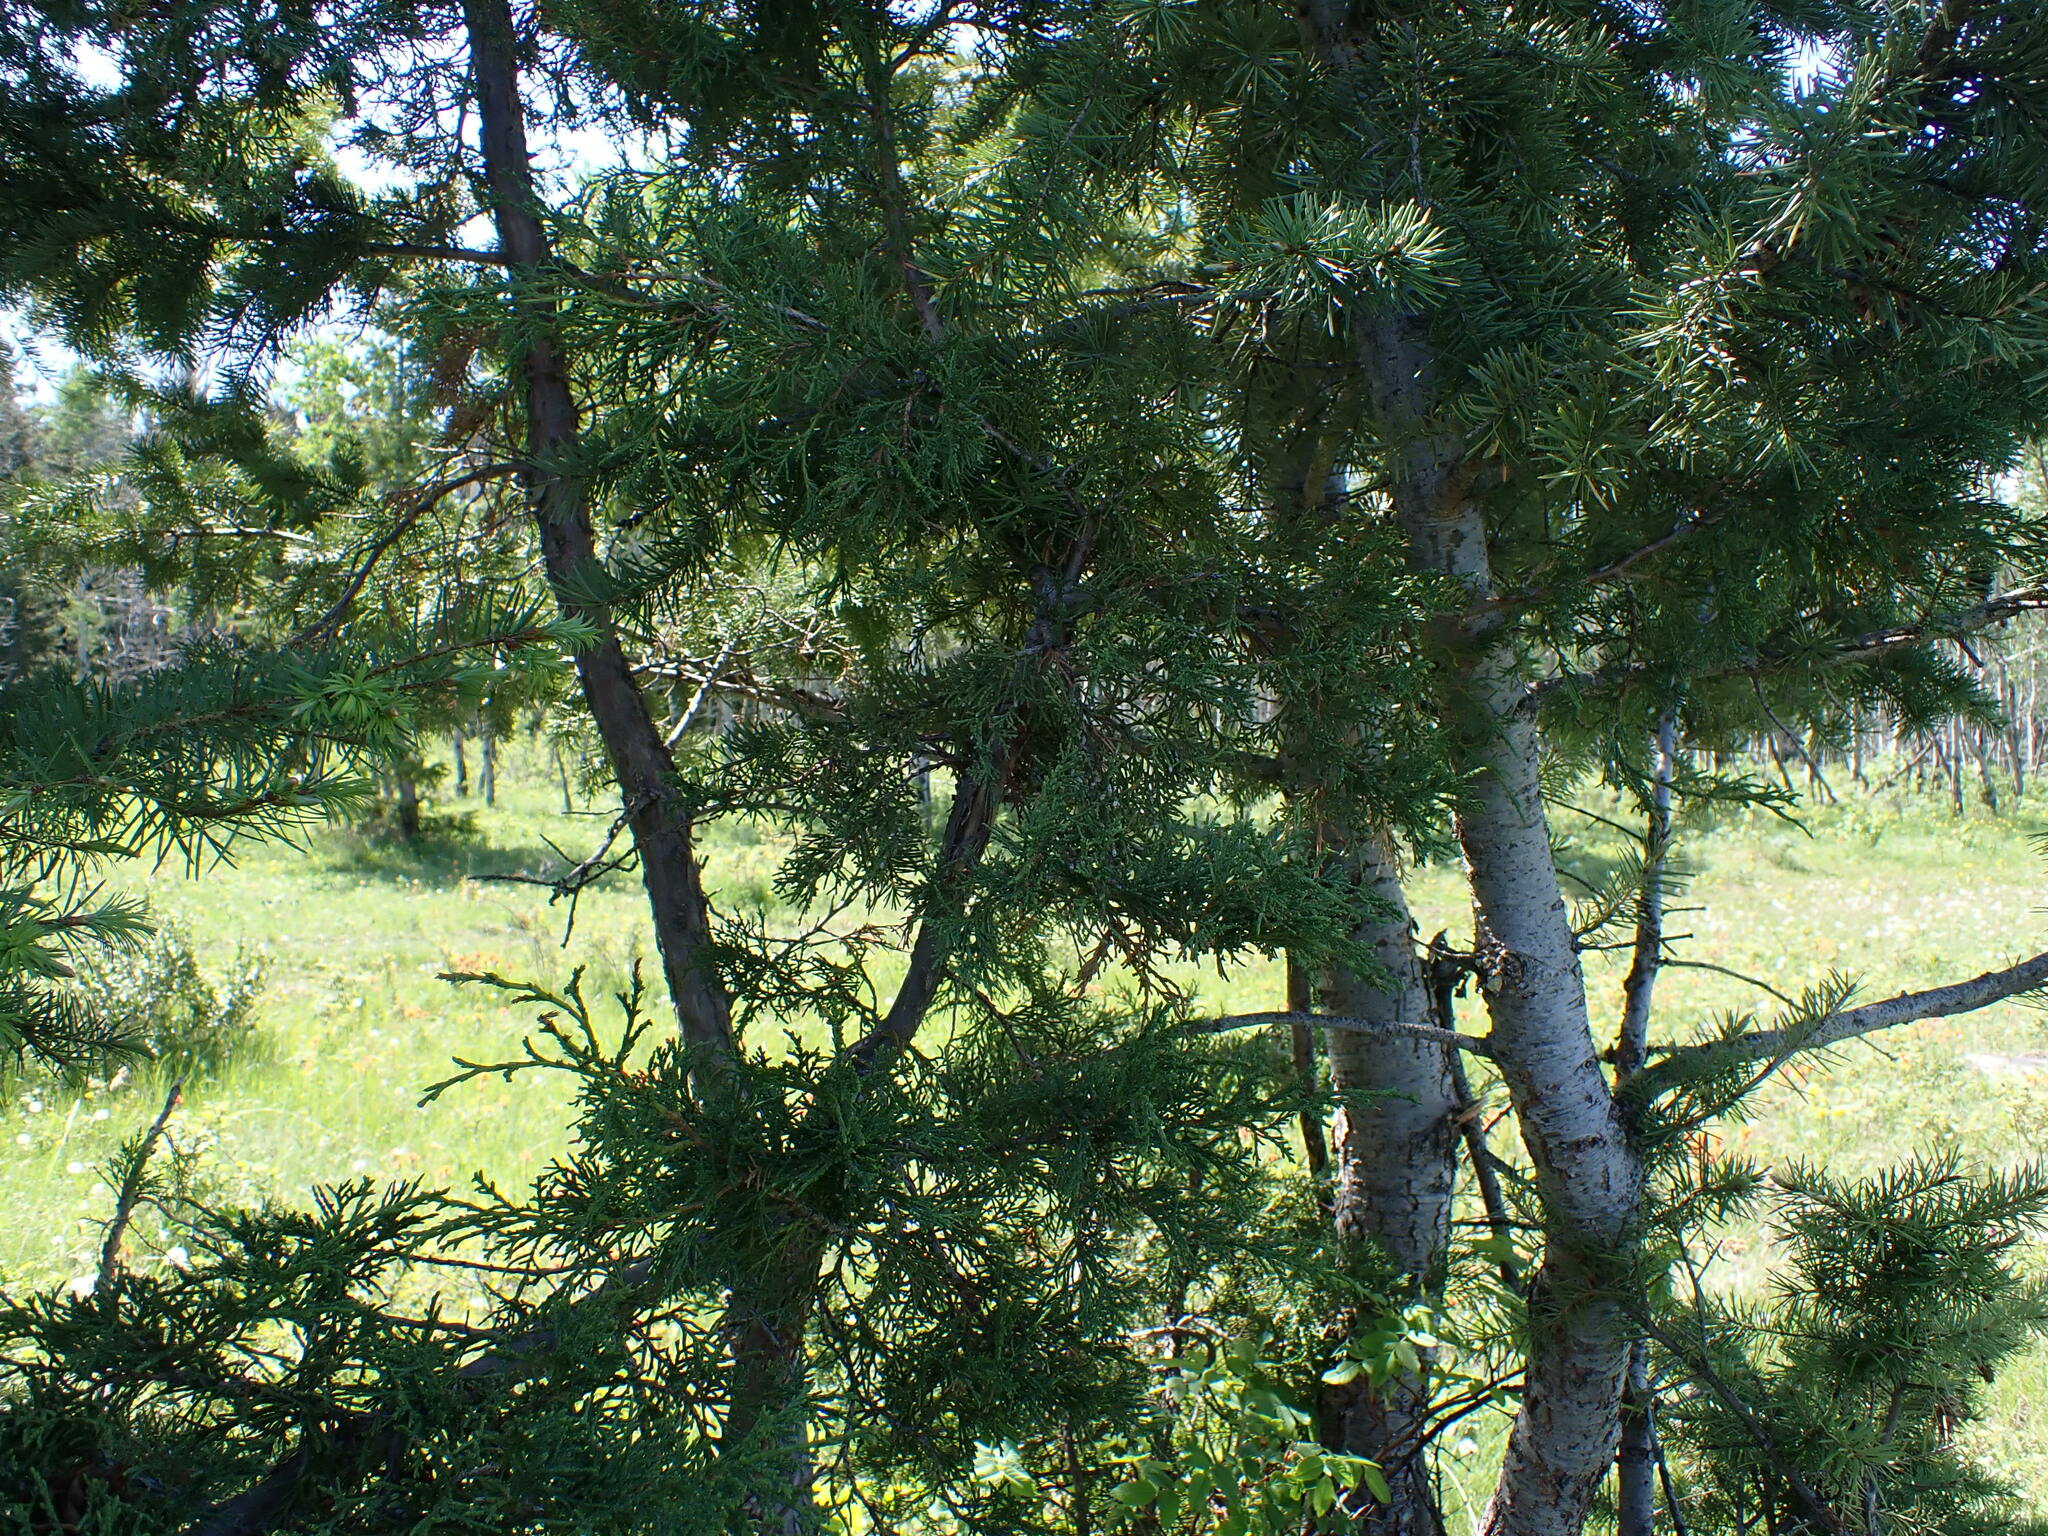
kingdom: Plantae
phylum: Tracheophyta
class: Pinopsida
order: Pinales
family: Cupressaceae
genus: Juniperus
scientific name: Juniperus scopulorum
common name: Rocky mountain juniper
